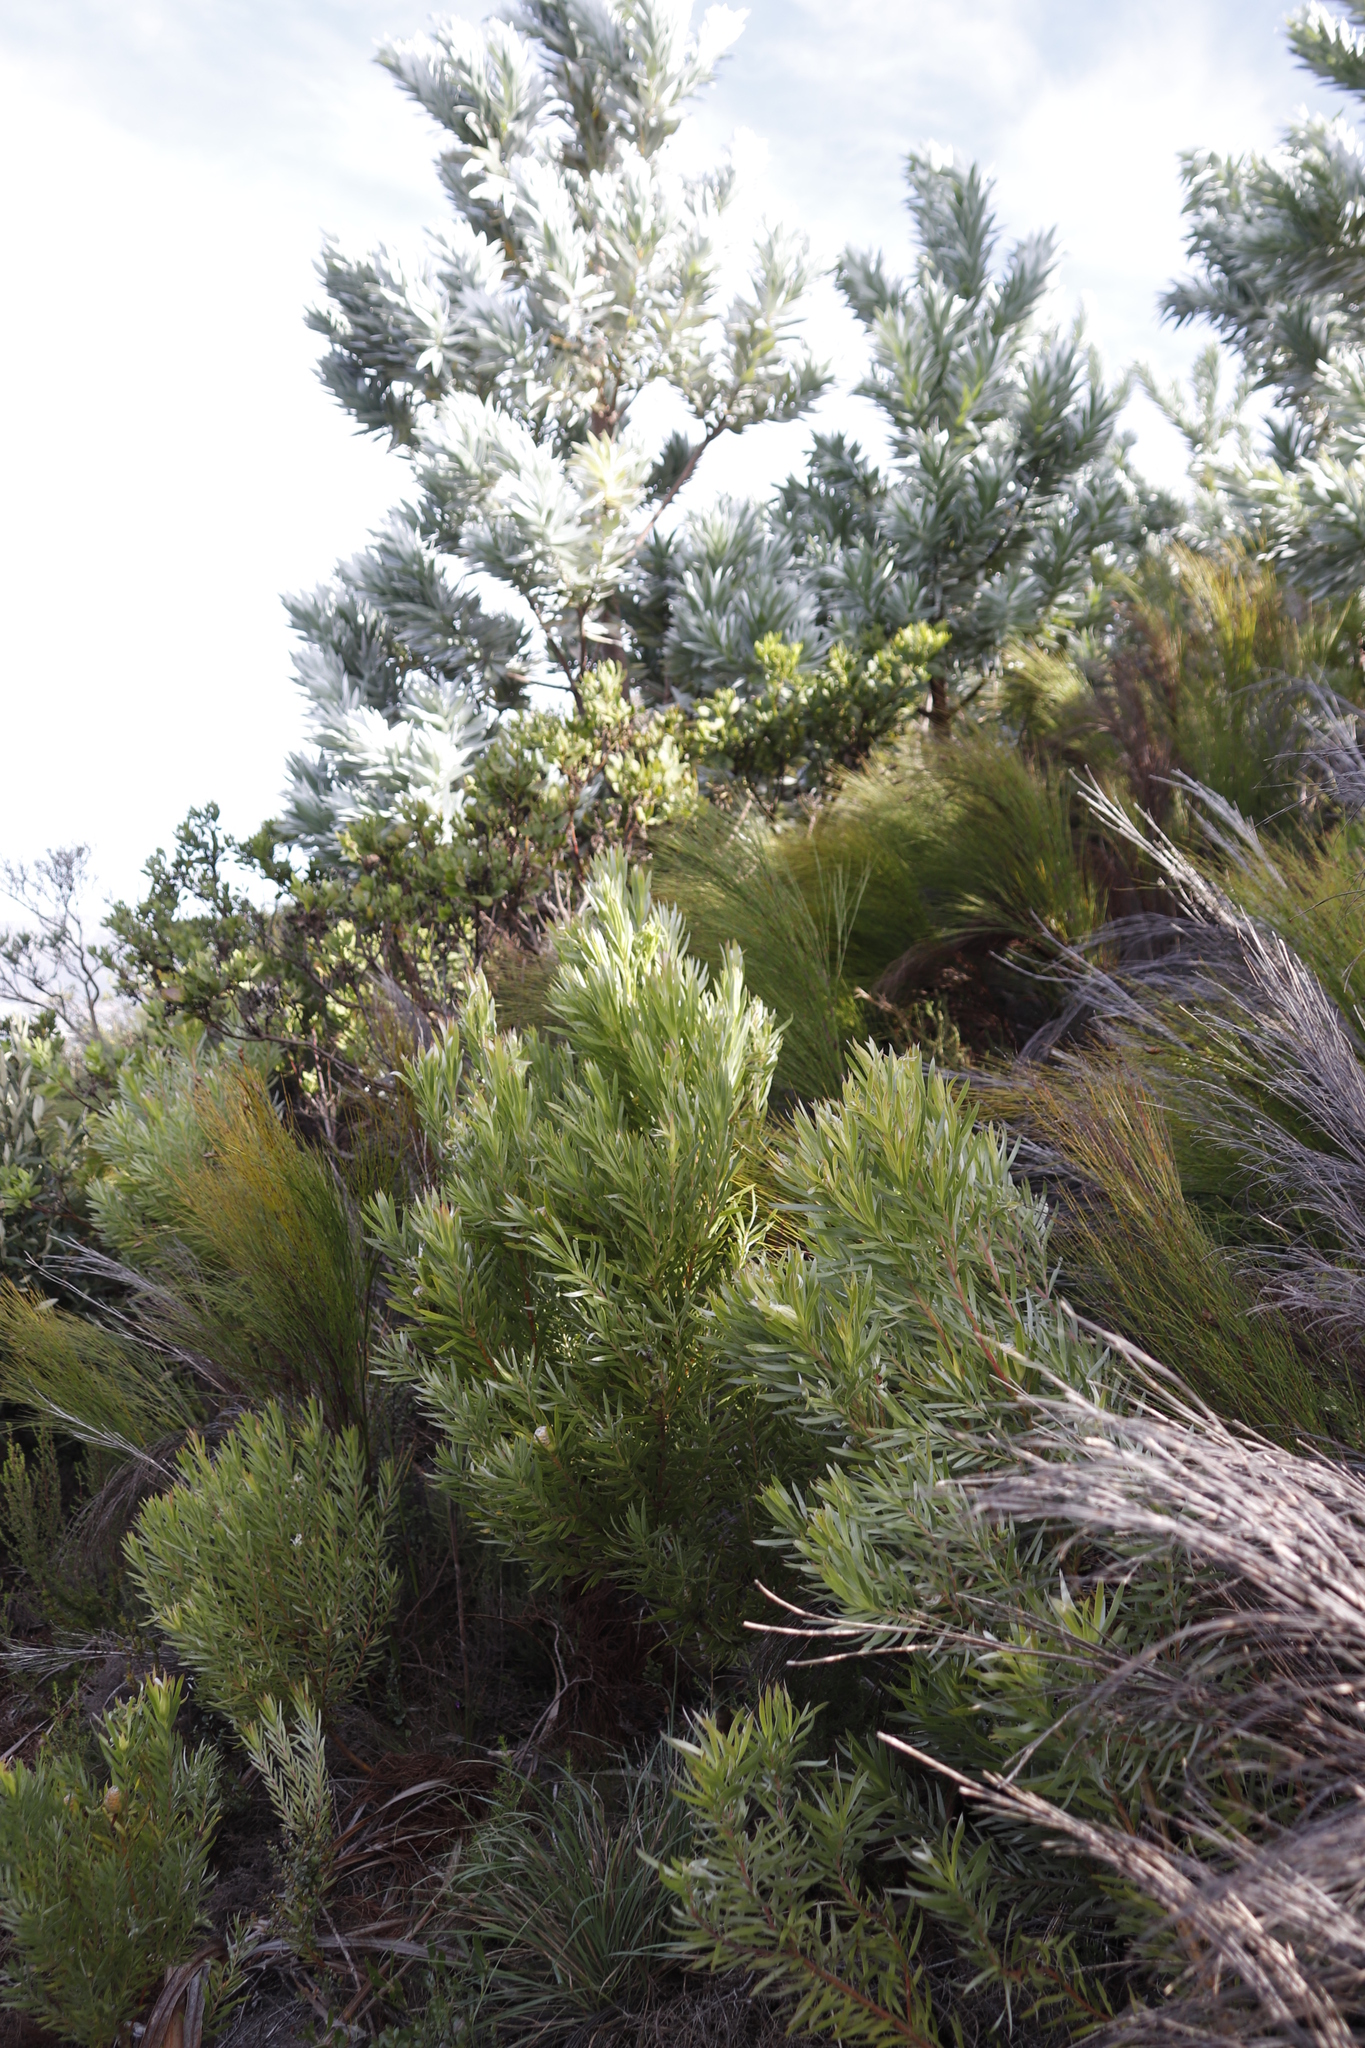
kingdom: Plantae
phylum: Tracheophyta
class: Magnoliopsida
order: Proteales
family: Proteaceae
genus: Leucadendron
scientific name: Leucadendron xanthoconus
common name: Sickle-leaf conebush
